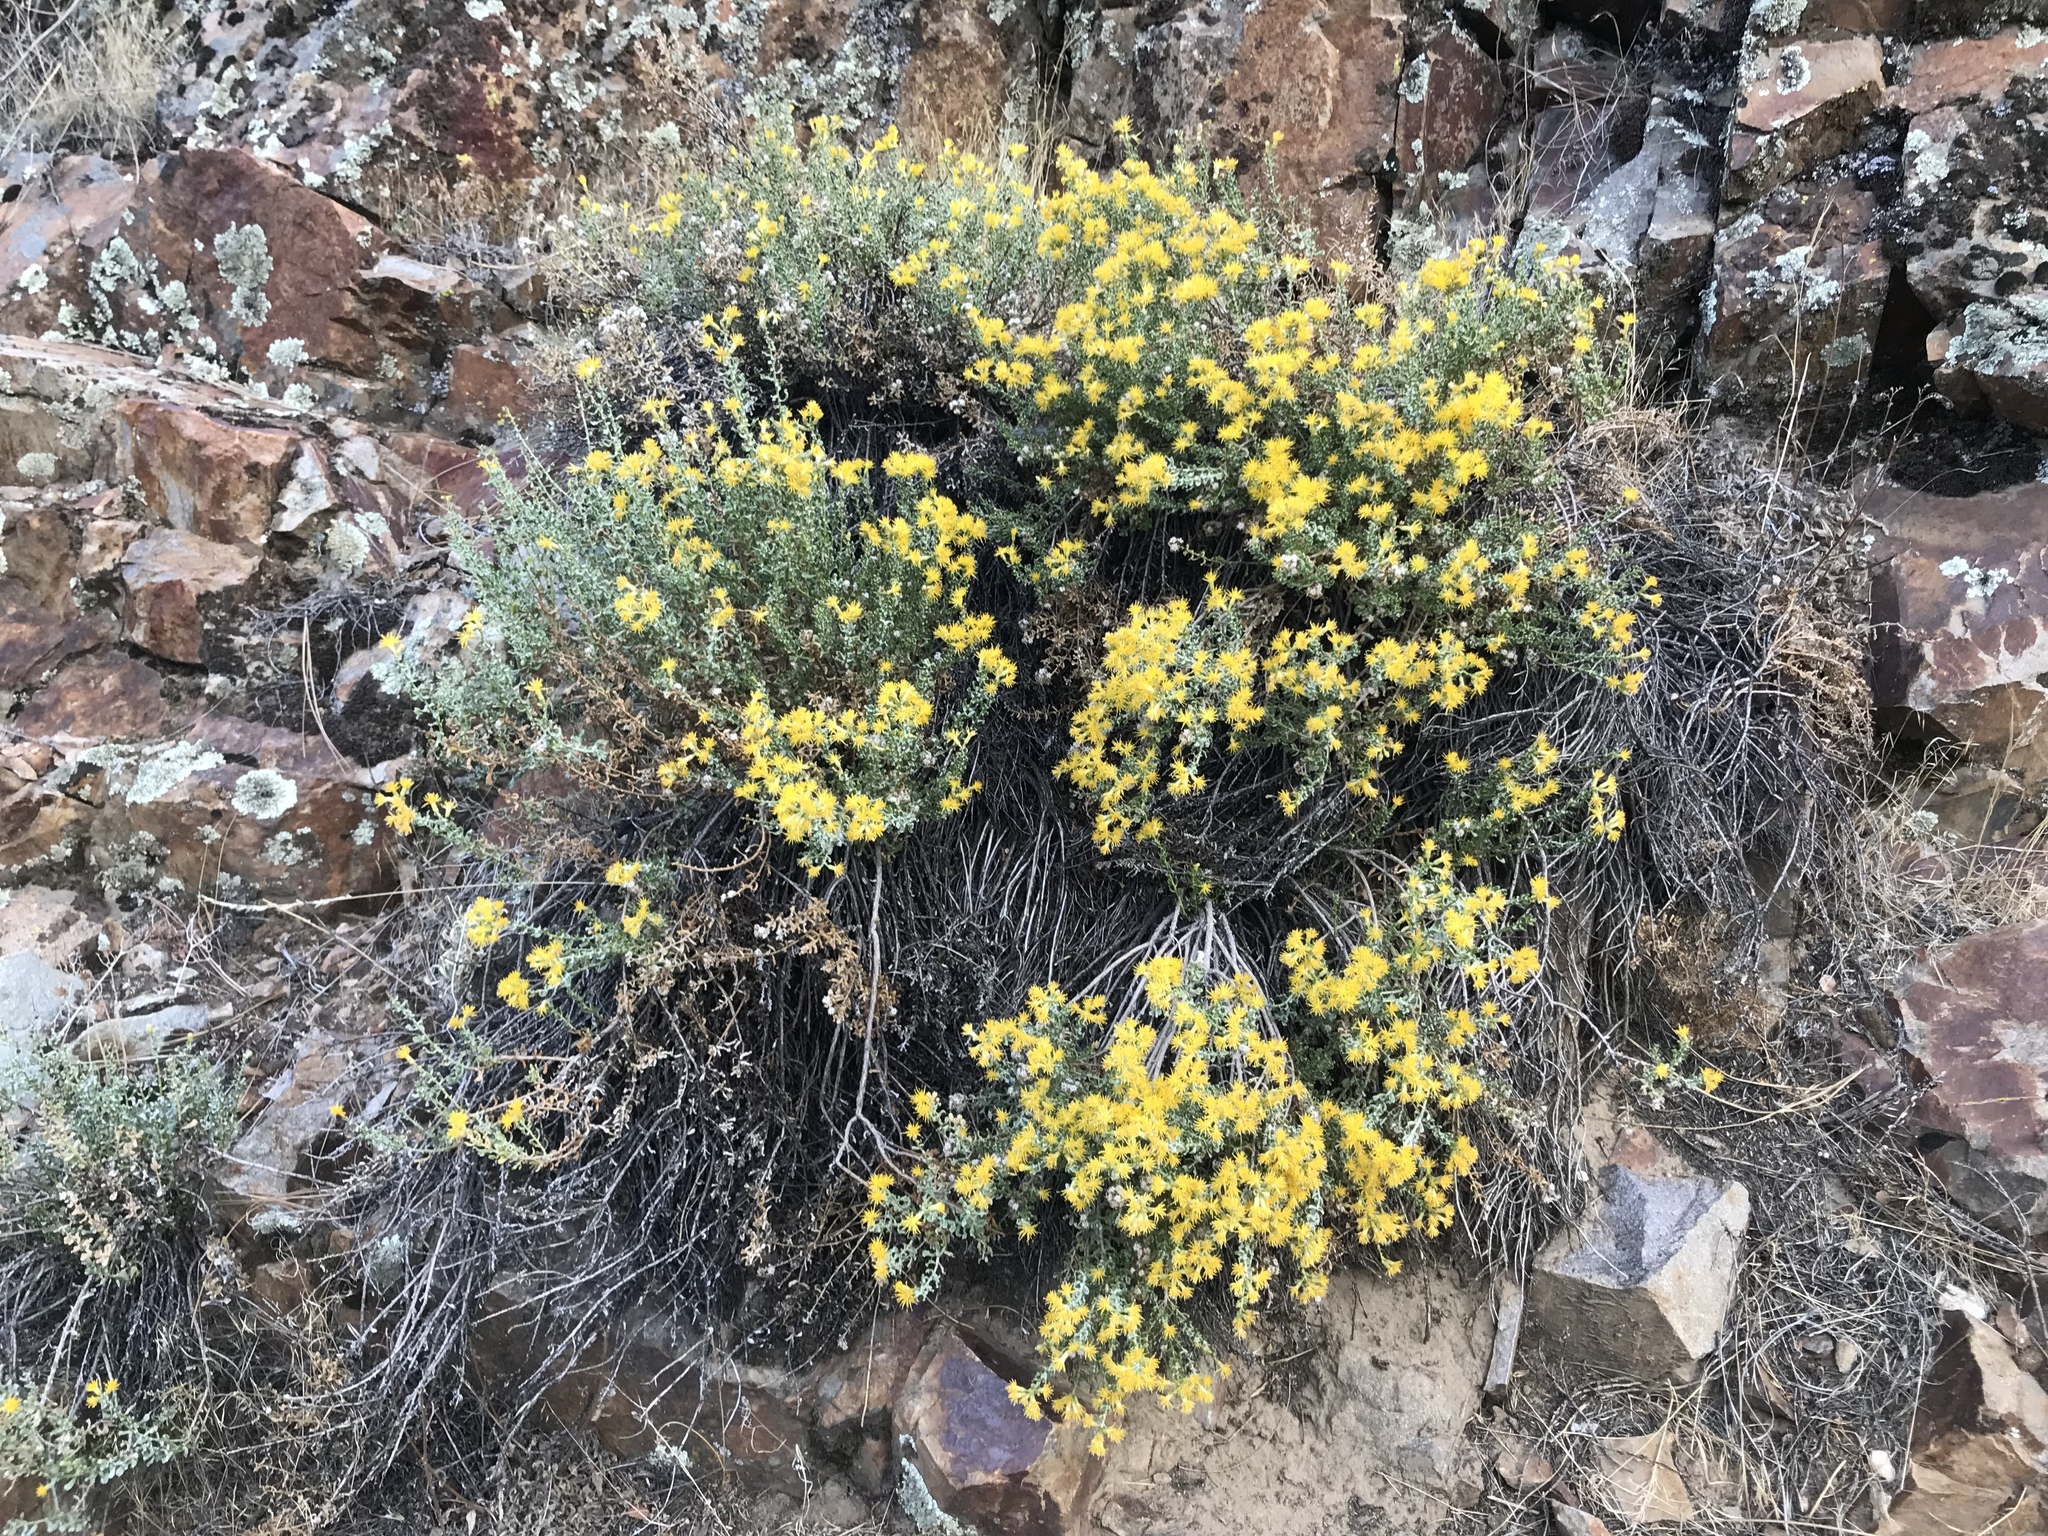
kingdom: Plantae
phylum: Tracheophyta
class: Magnoliopsida
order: Asterales
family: Asteraceae
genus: Ericameria
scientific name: Ericameria cuneata
